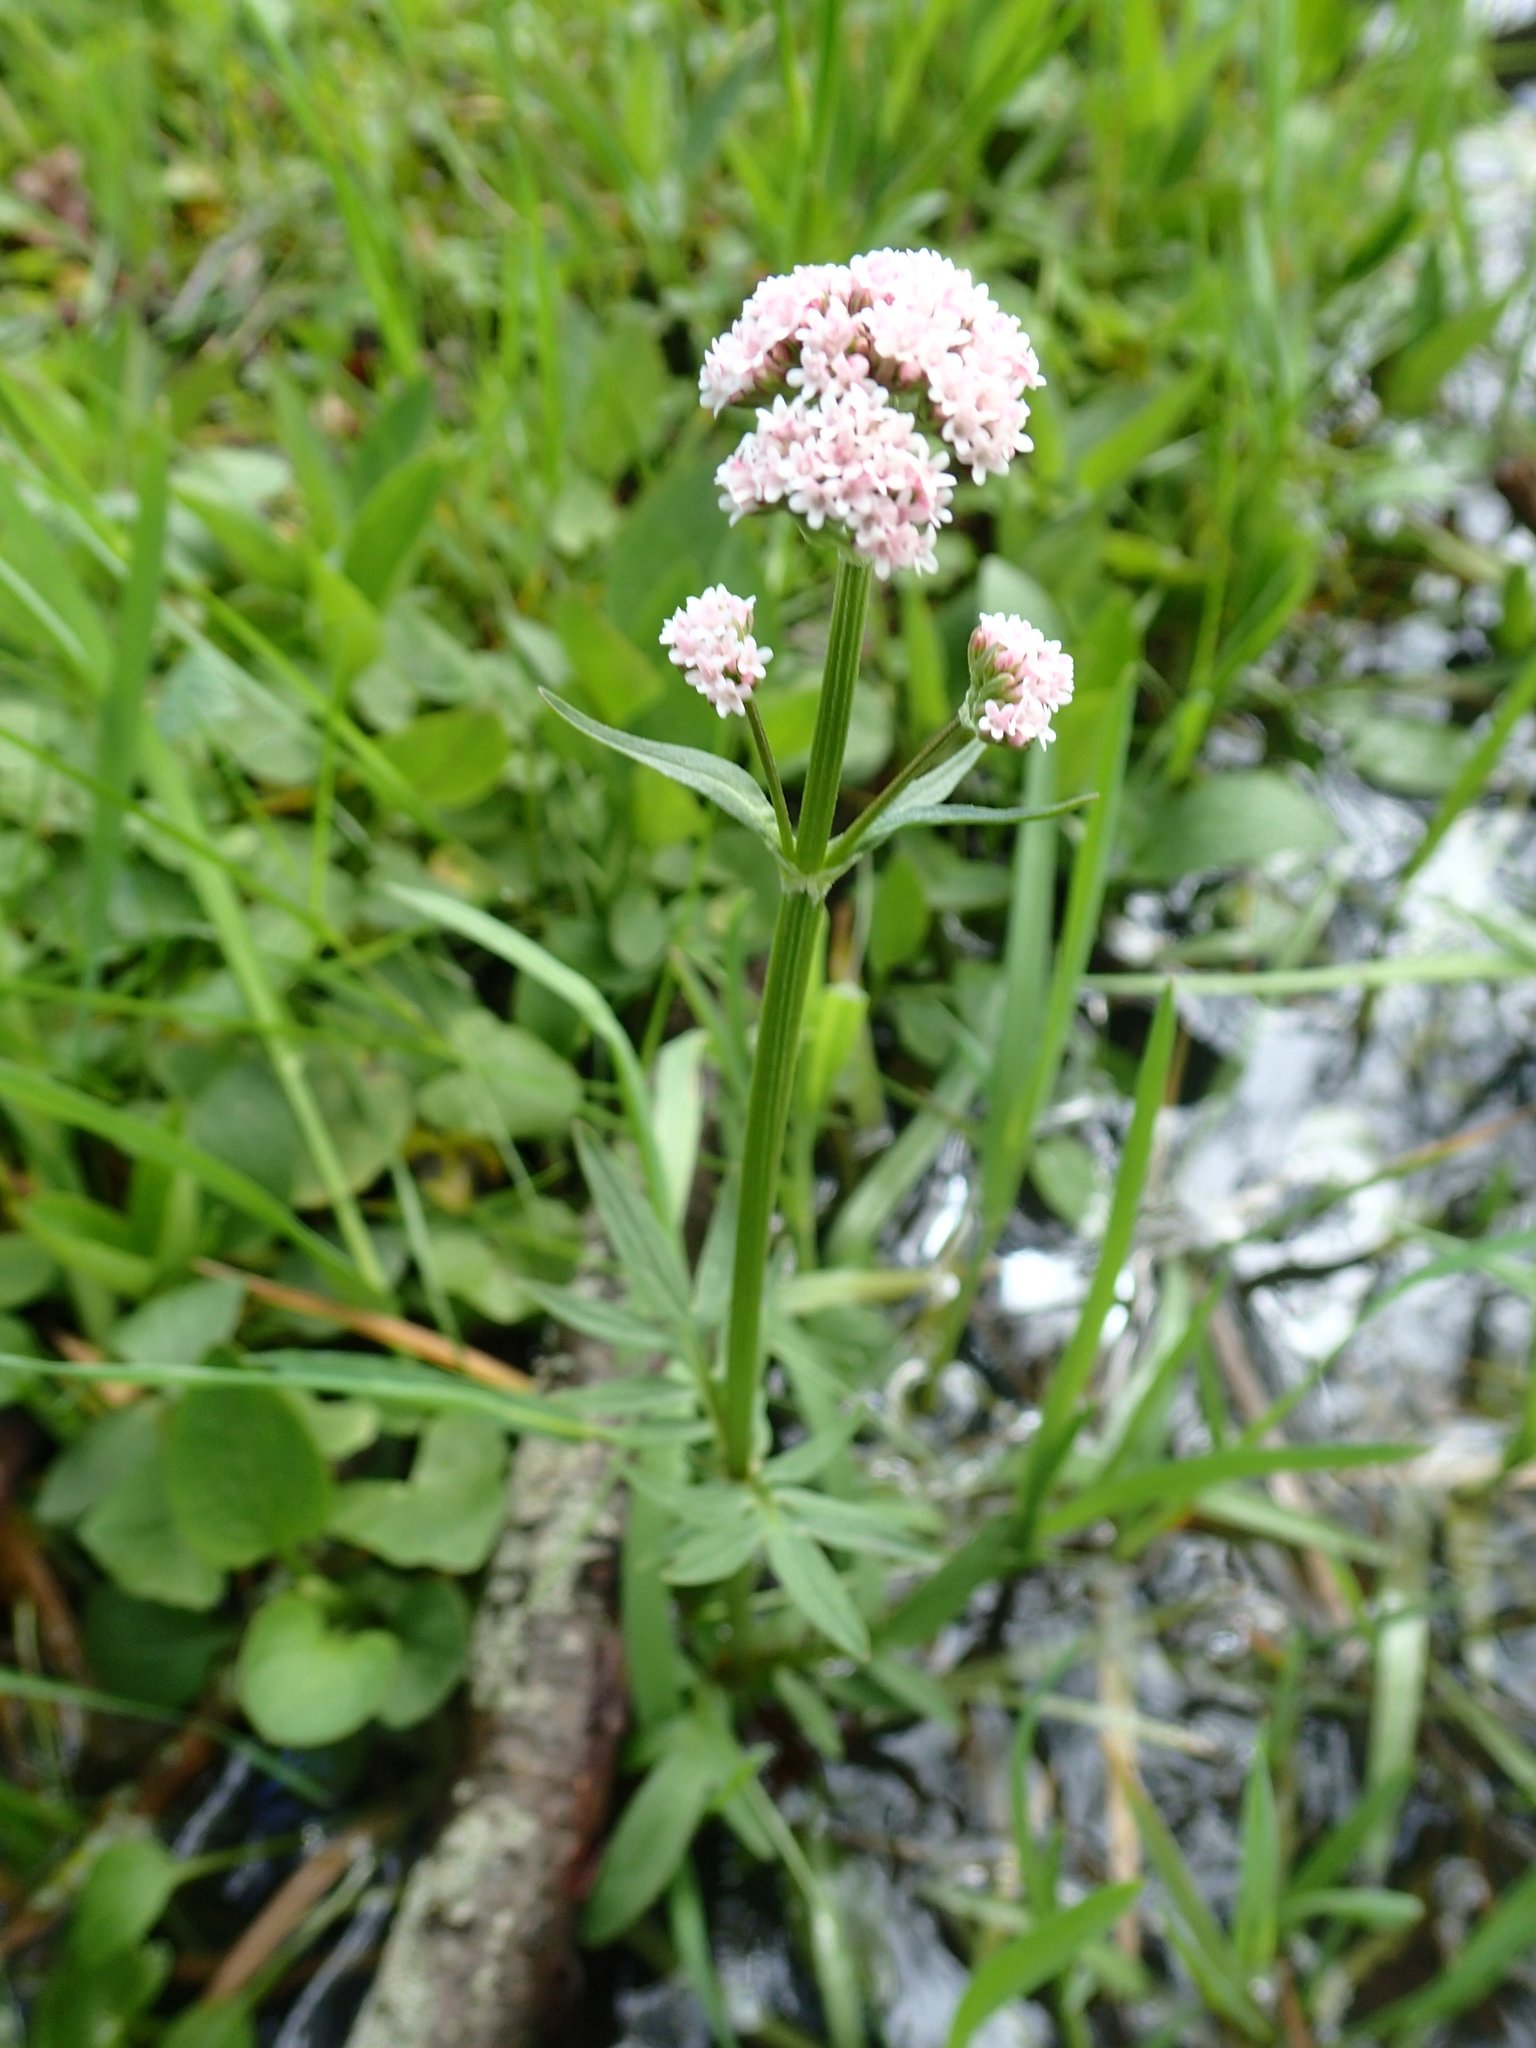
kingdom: Plantae
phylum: Tracheophyta
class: Magnoliopsida
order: Dipsacales
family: Caprifoliaceae
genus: Valeriana
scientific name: Valeriana dioica
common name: Marsh valerian
